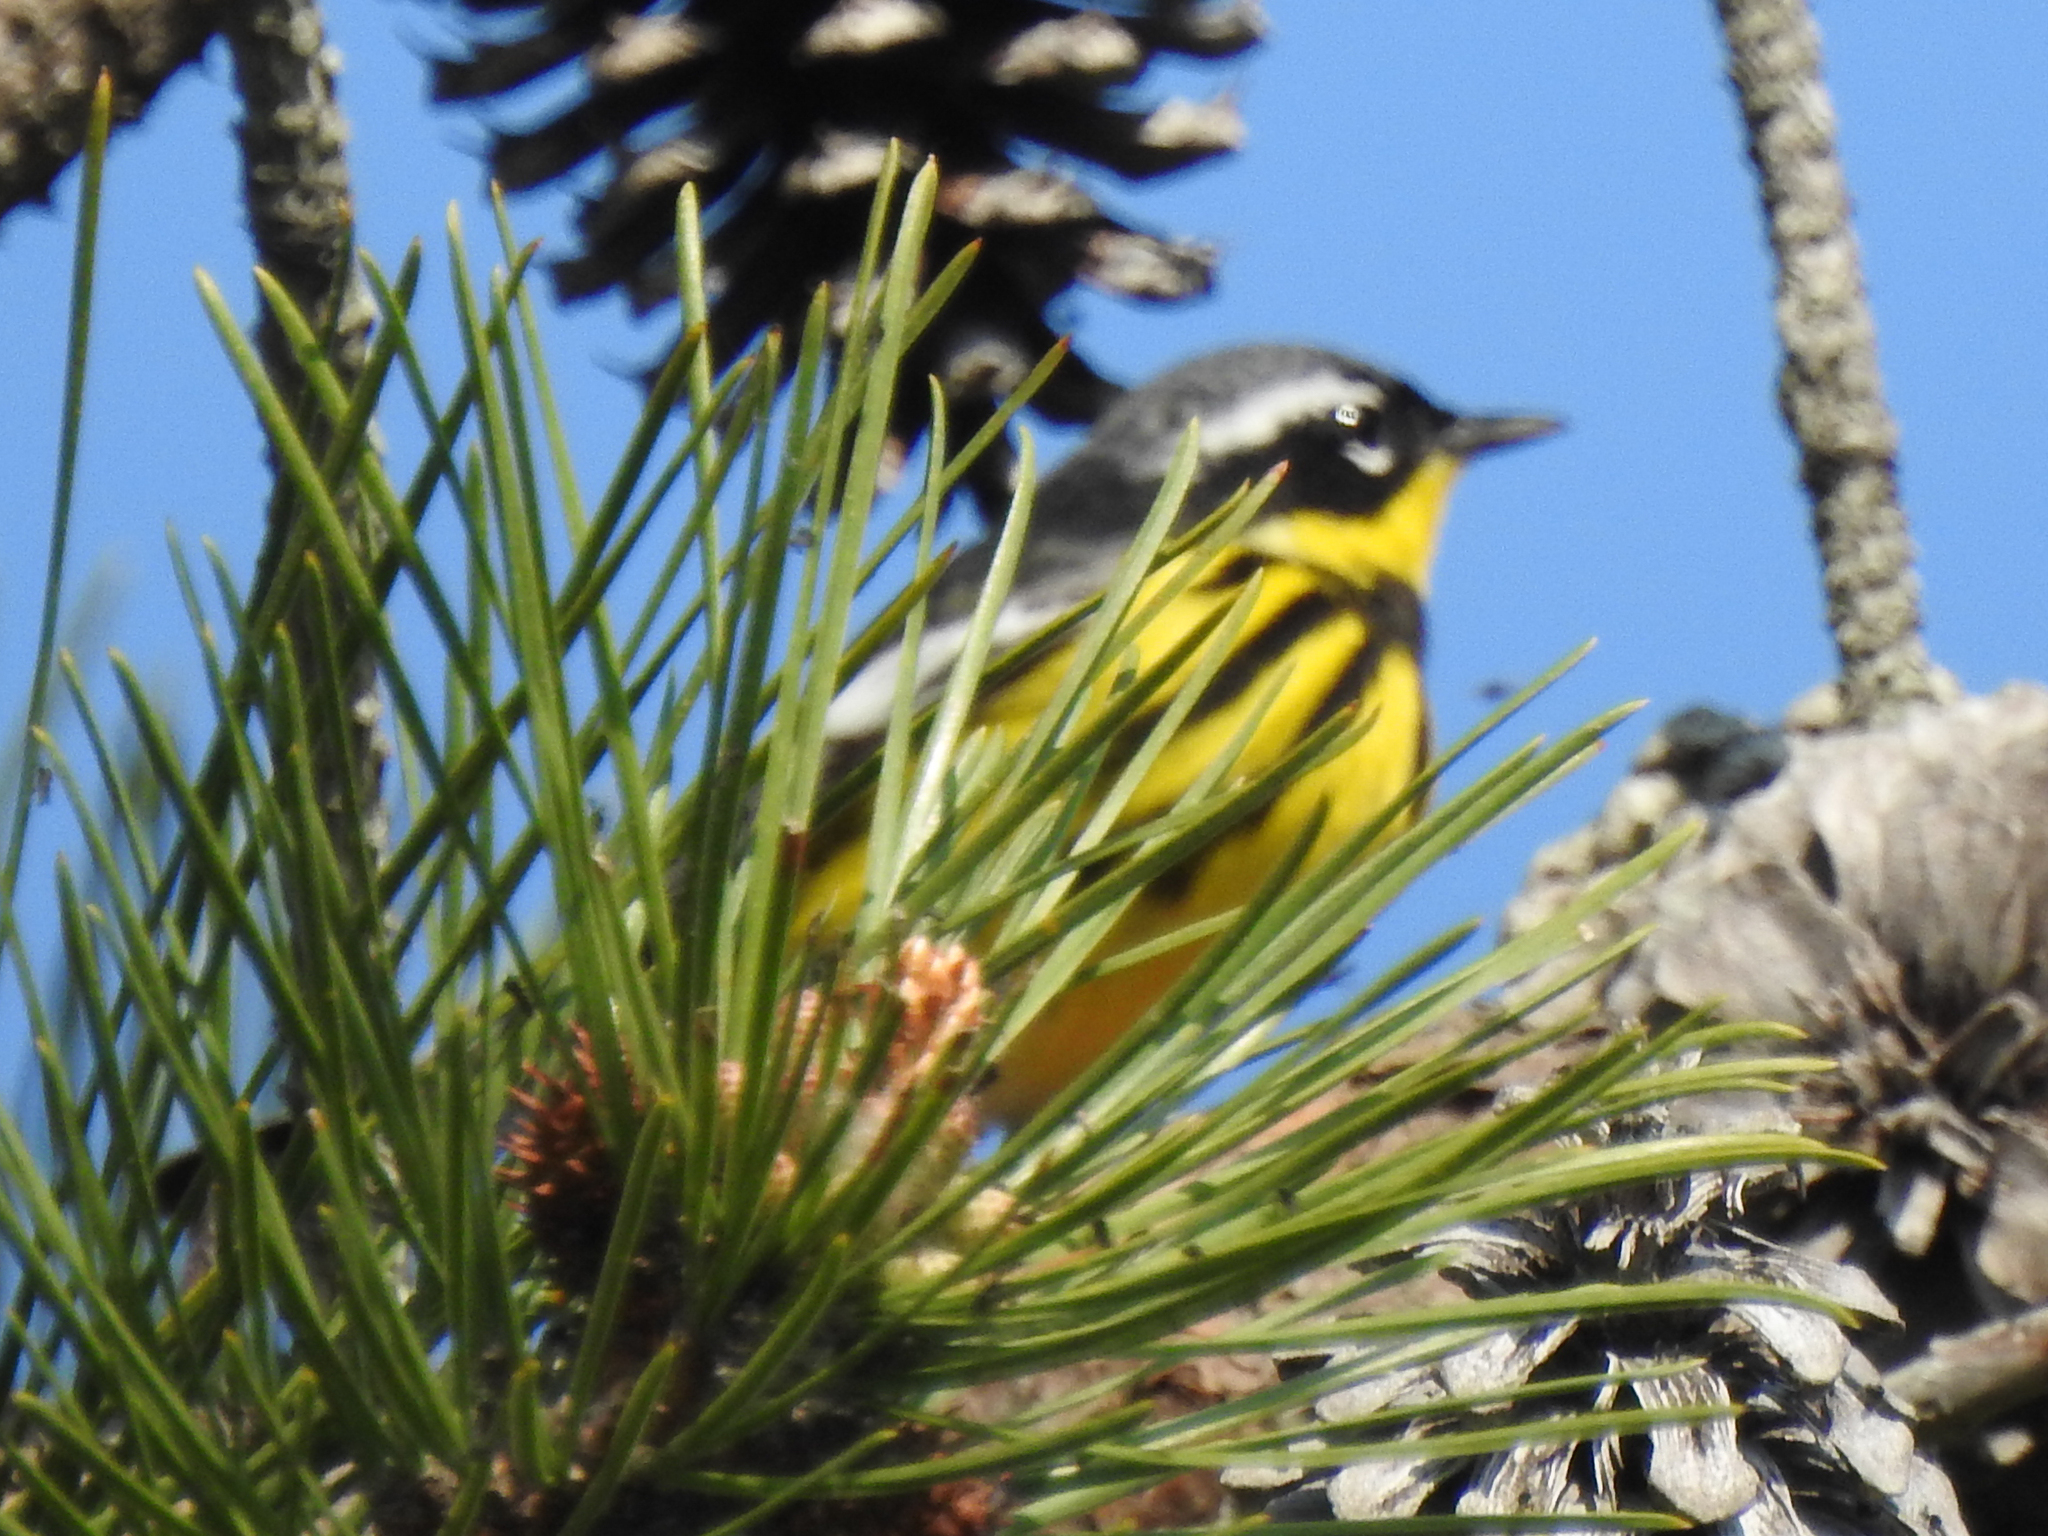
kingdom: Animalia
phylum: Chordata
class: Aves
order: Passeriformes
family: Parulidae
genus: Setophaga
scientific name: Setophaga magnolia
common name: Magnolia warbler
